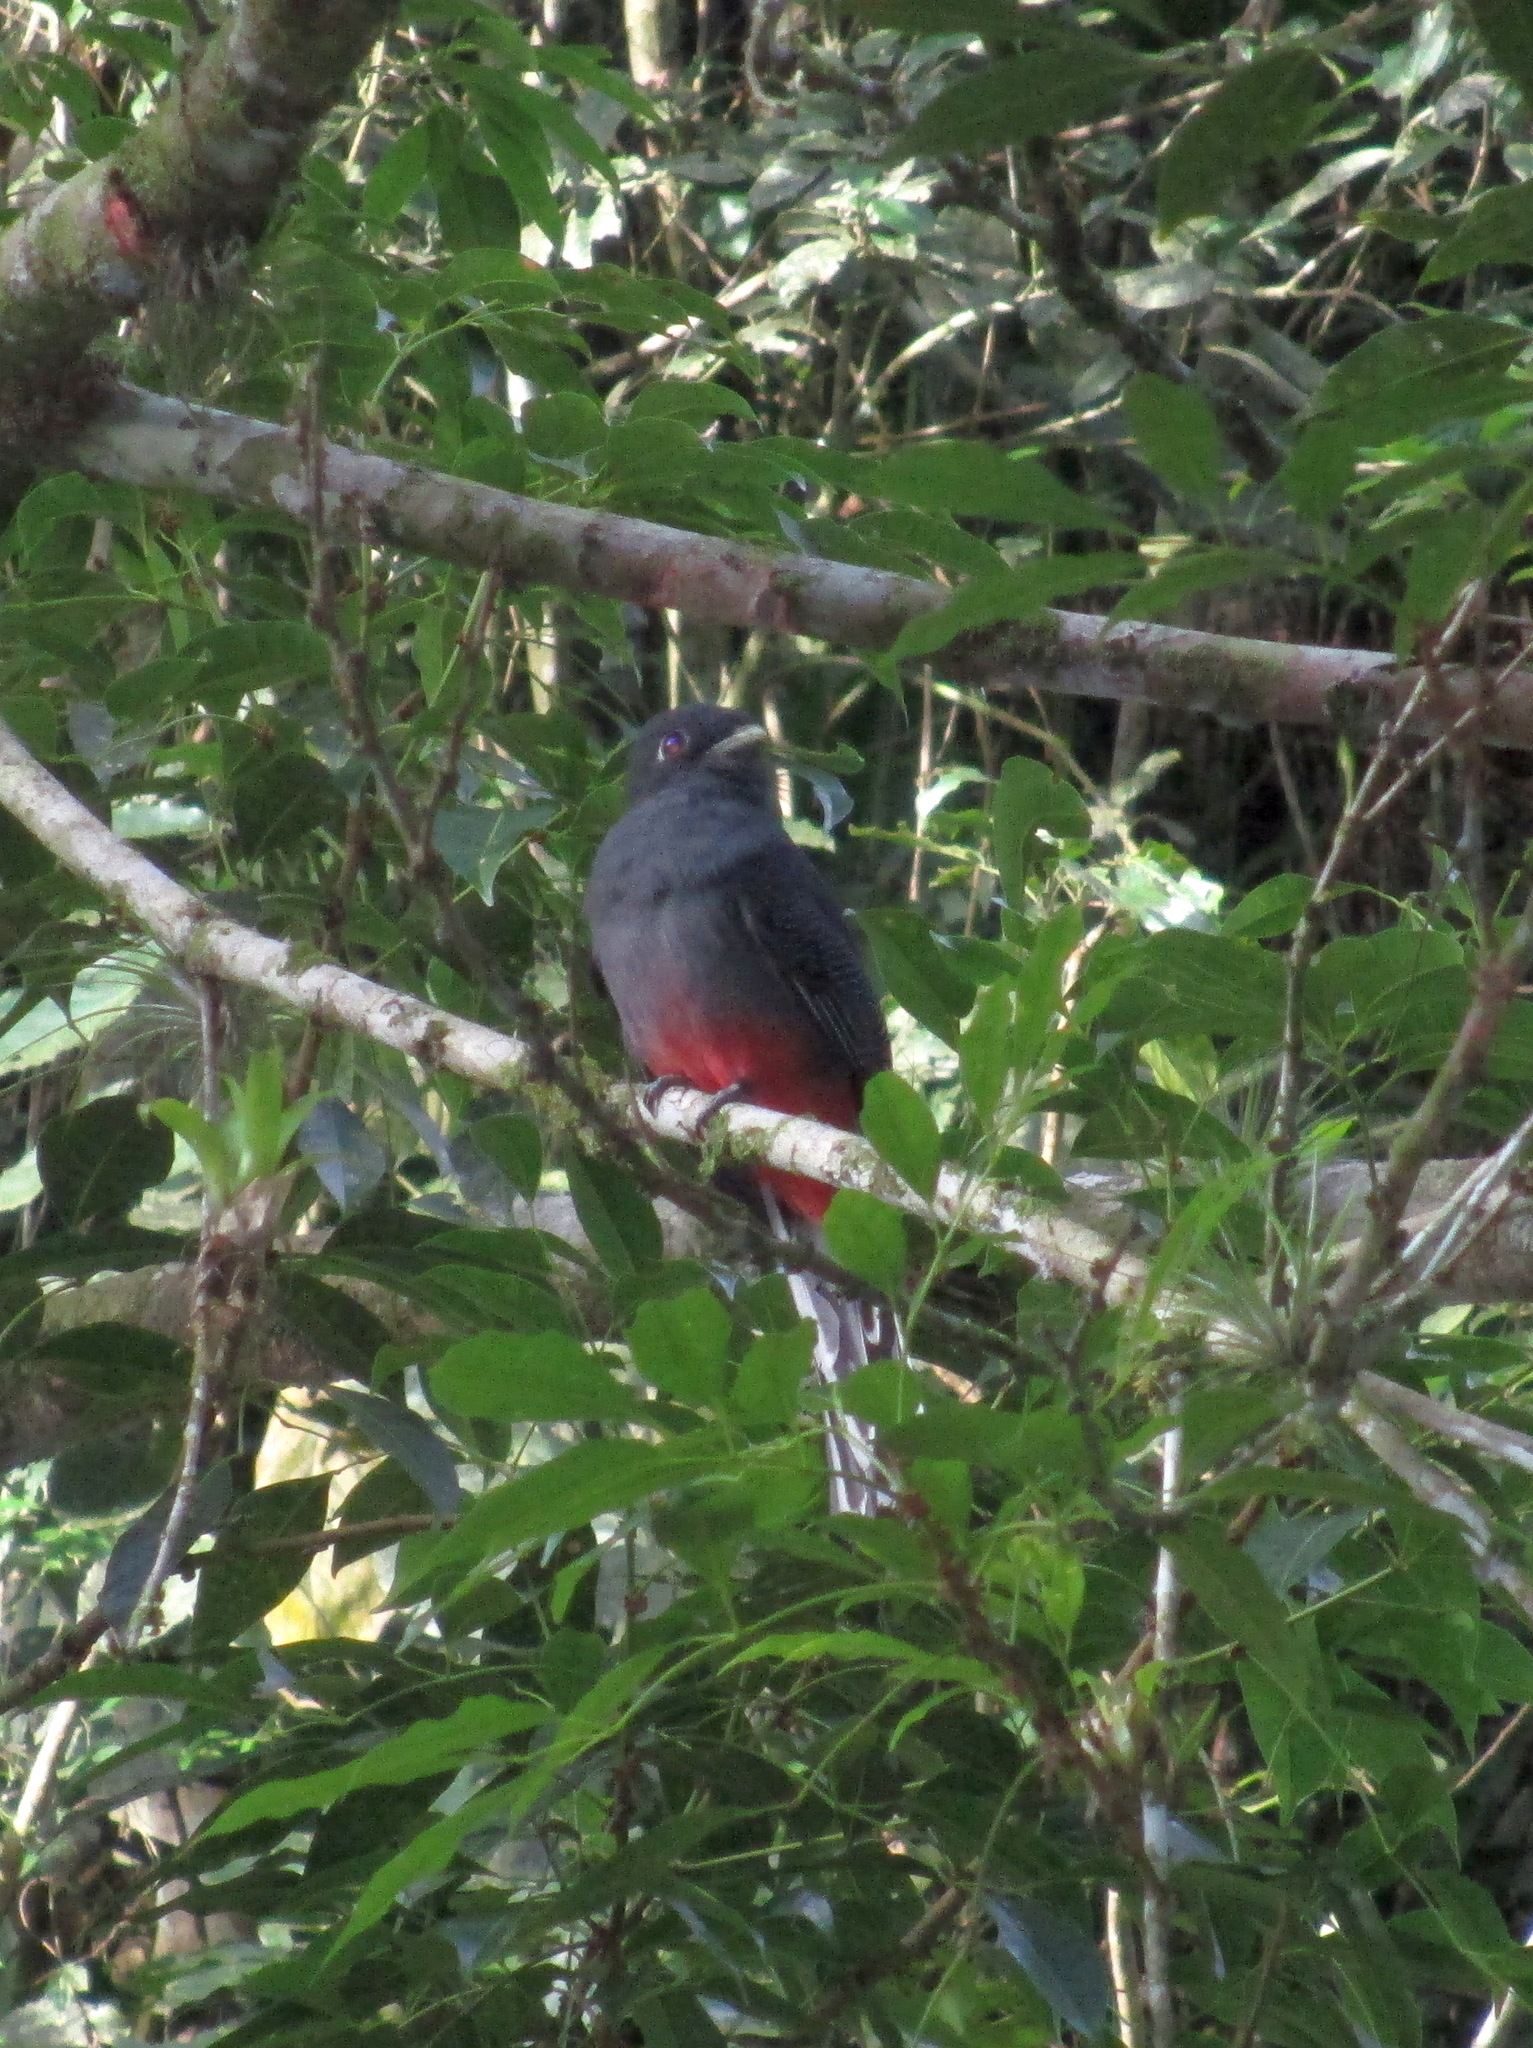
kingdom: Animalia
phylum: Chordata
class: Aves
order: Trogoniformes
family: Trogonidae
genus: Trogon
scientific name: Trogon surrucura
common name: Surucua trogon
